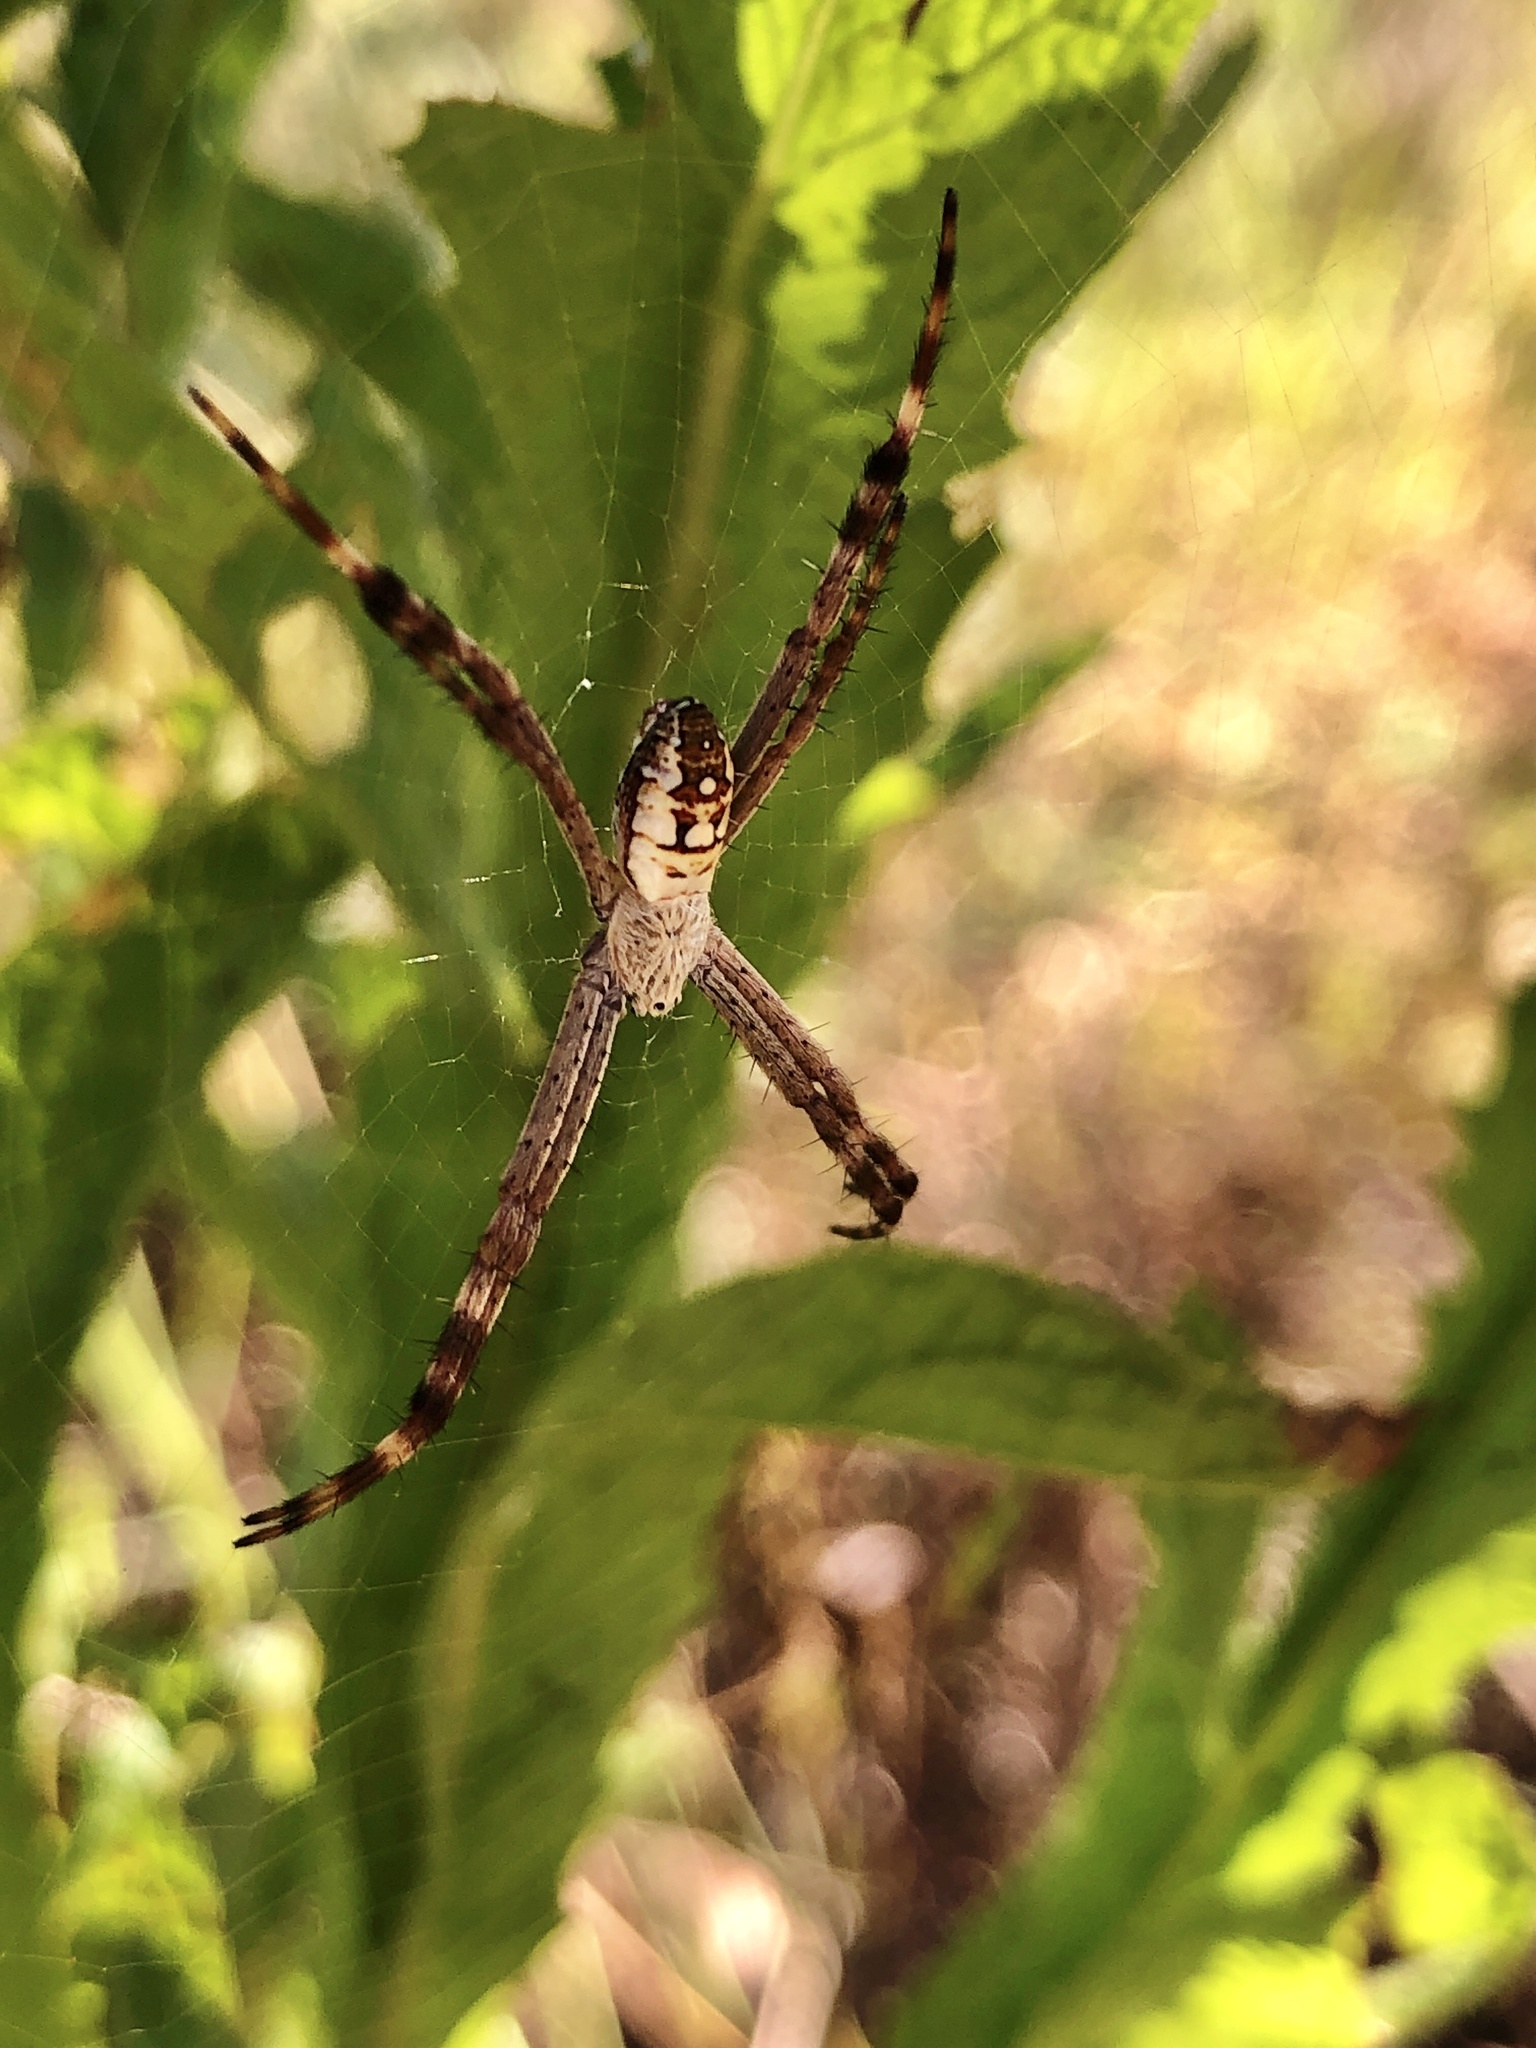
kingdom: Animalia
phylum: Arthropoda
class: Arachnida
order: Araneae
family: Araneidae
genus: Argiope
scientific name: Argiope picta
